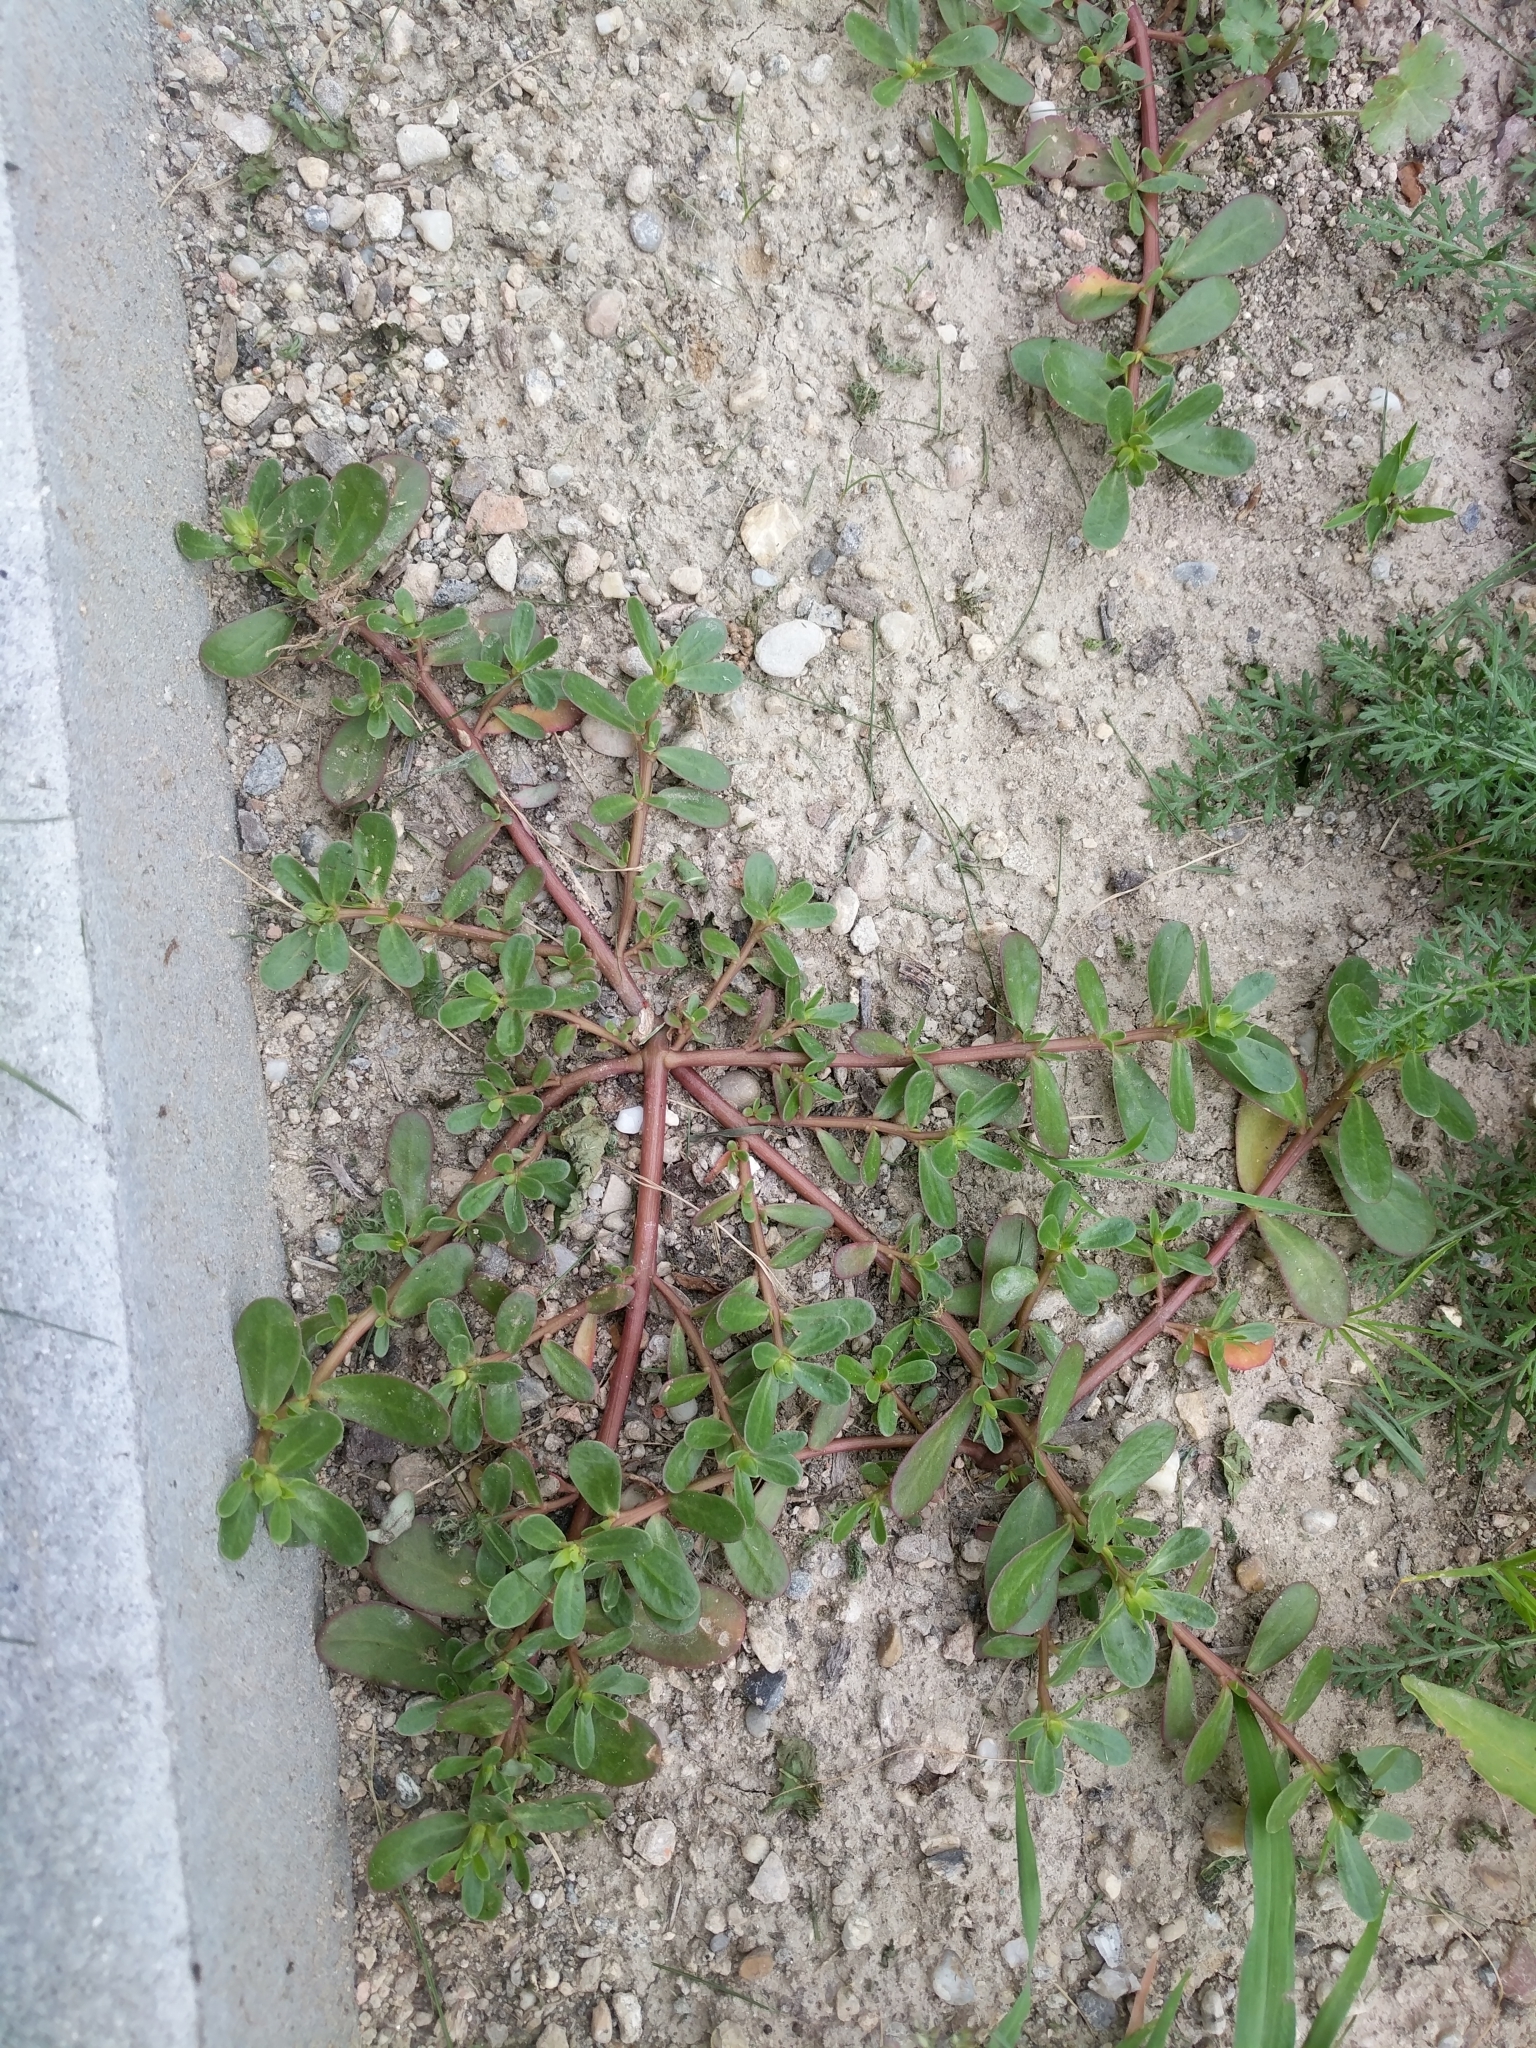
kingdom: Plantae
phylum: Tracheophyta
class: Magnoliopsida
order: Caryophyllales
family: Portulacaceae
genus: Portulaca
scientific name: Portulaca oleracea
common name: Common purslane
